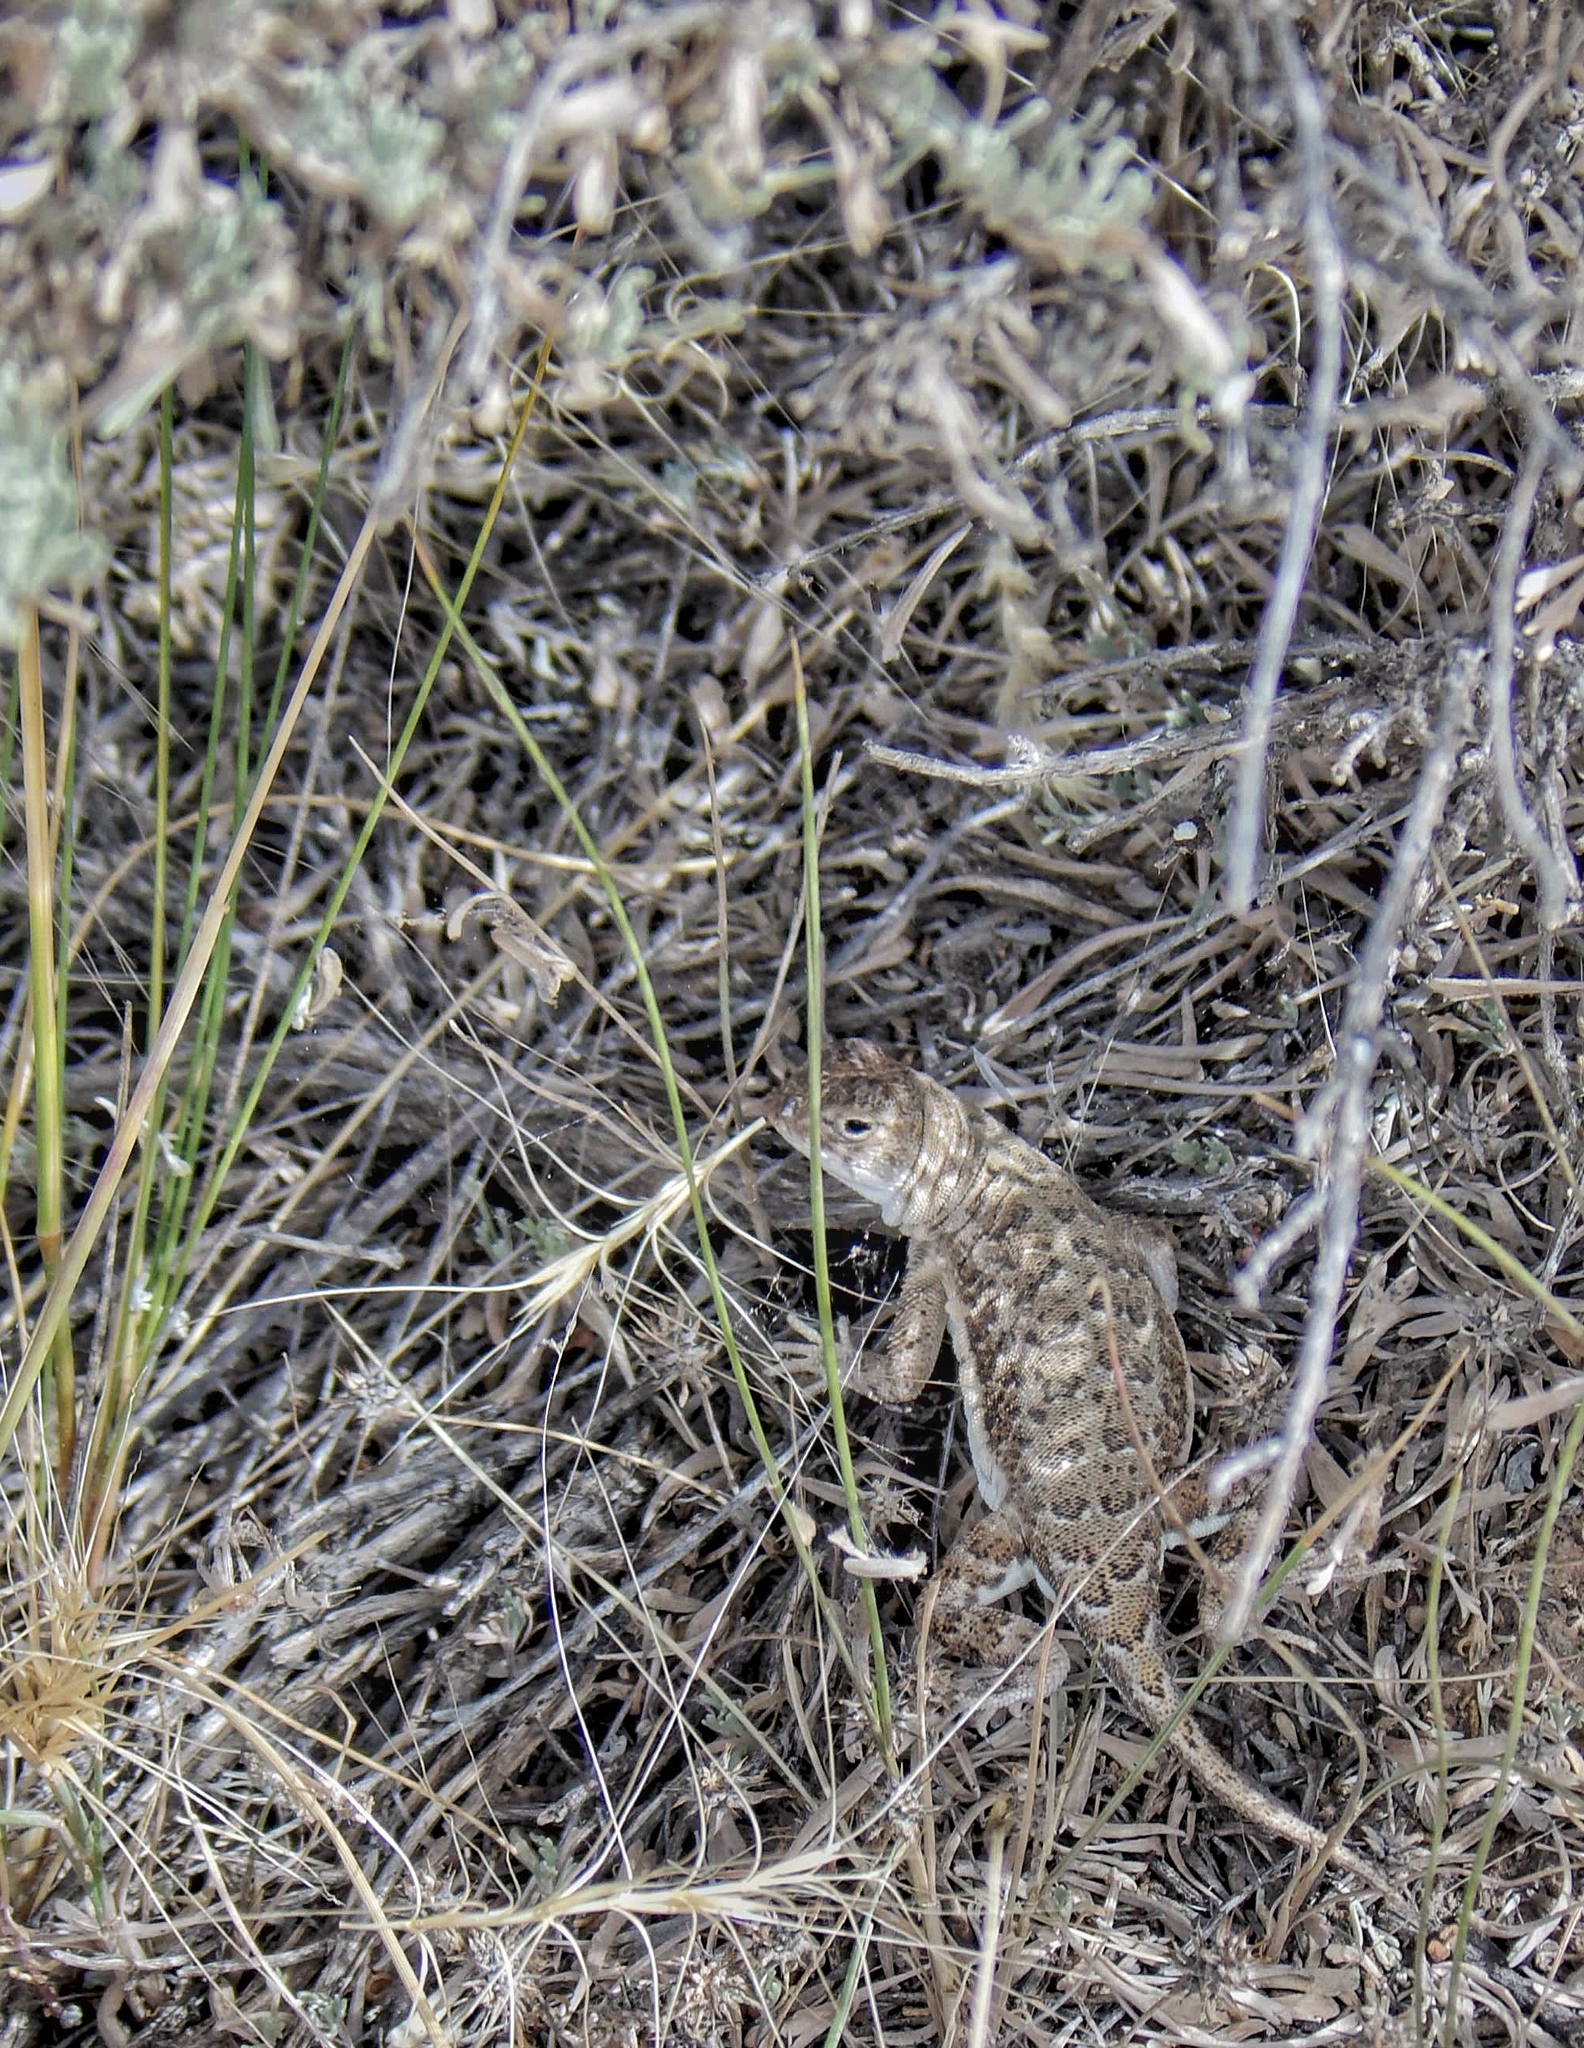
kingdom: Animalia
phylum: Chordata
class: Squamata
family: Phrynosomatidae
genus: Holbrookia
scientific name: Holbrookia maculata
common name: Lesser earless lizard
